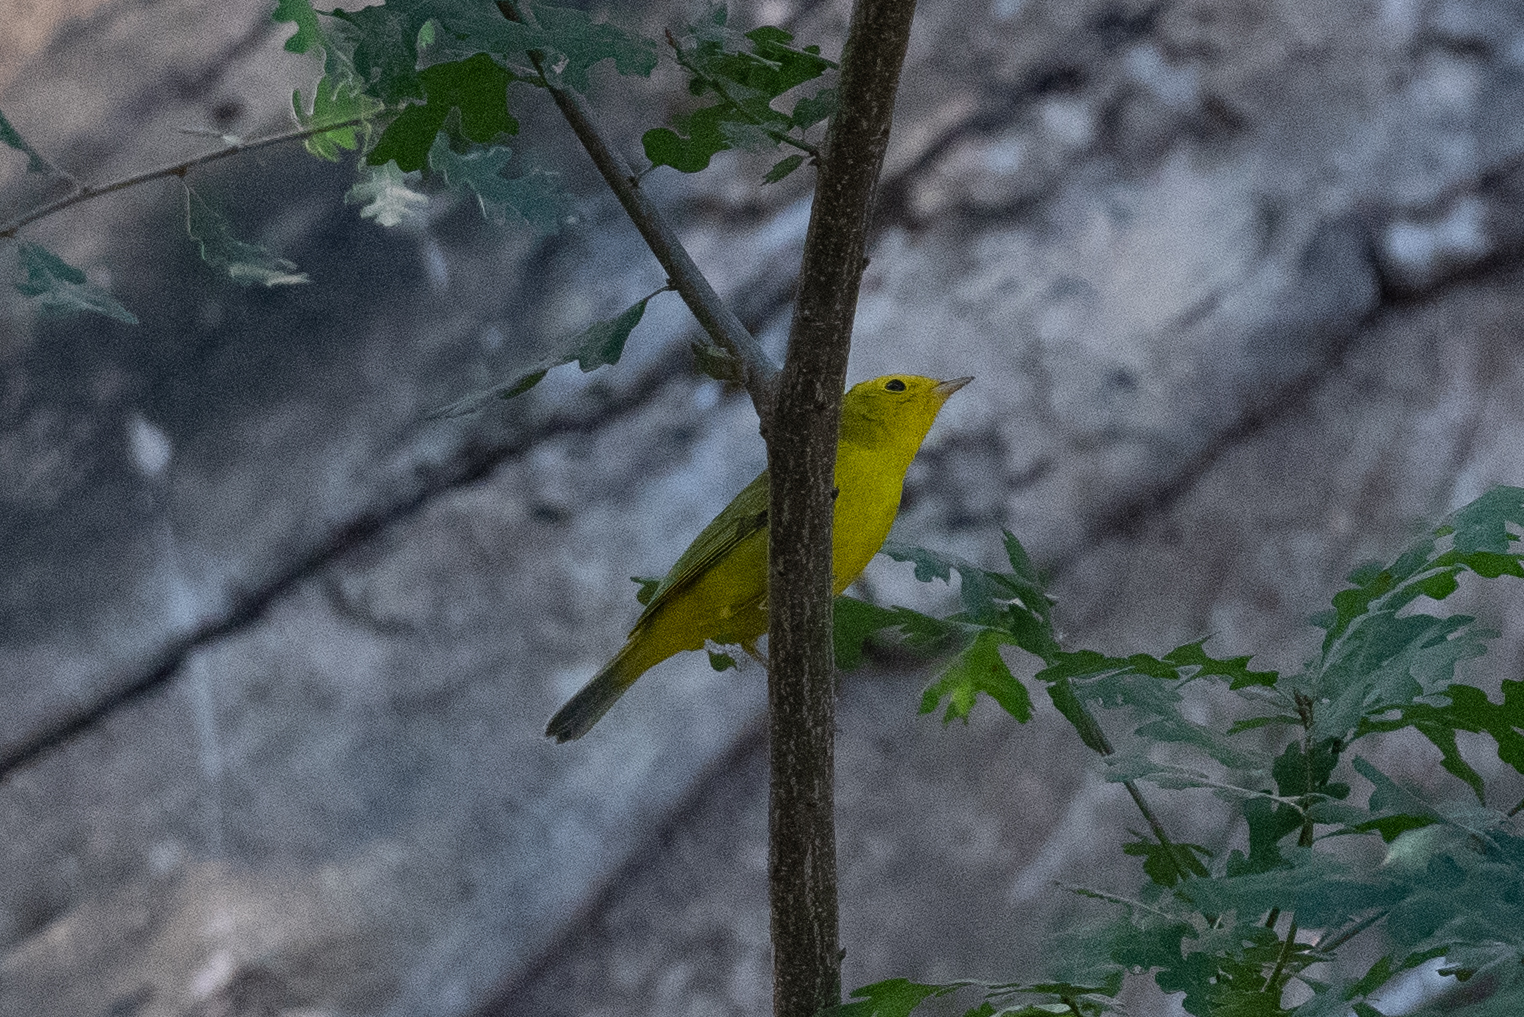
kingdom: Animalia
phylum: Chordata
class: Aves
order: Passeriformes
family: Parulidae
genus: Cardellina
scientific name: Cardellina pusilla
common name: Wilson's warbler
